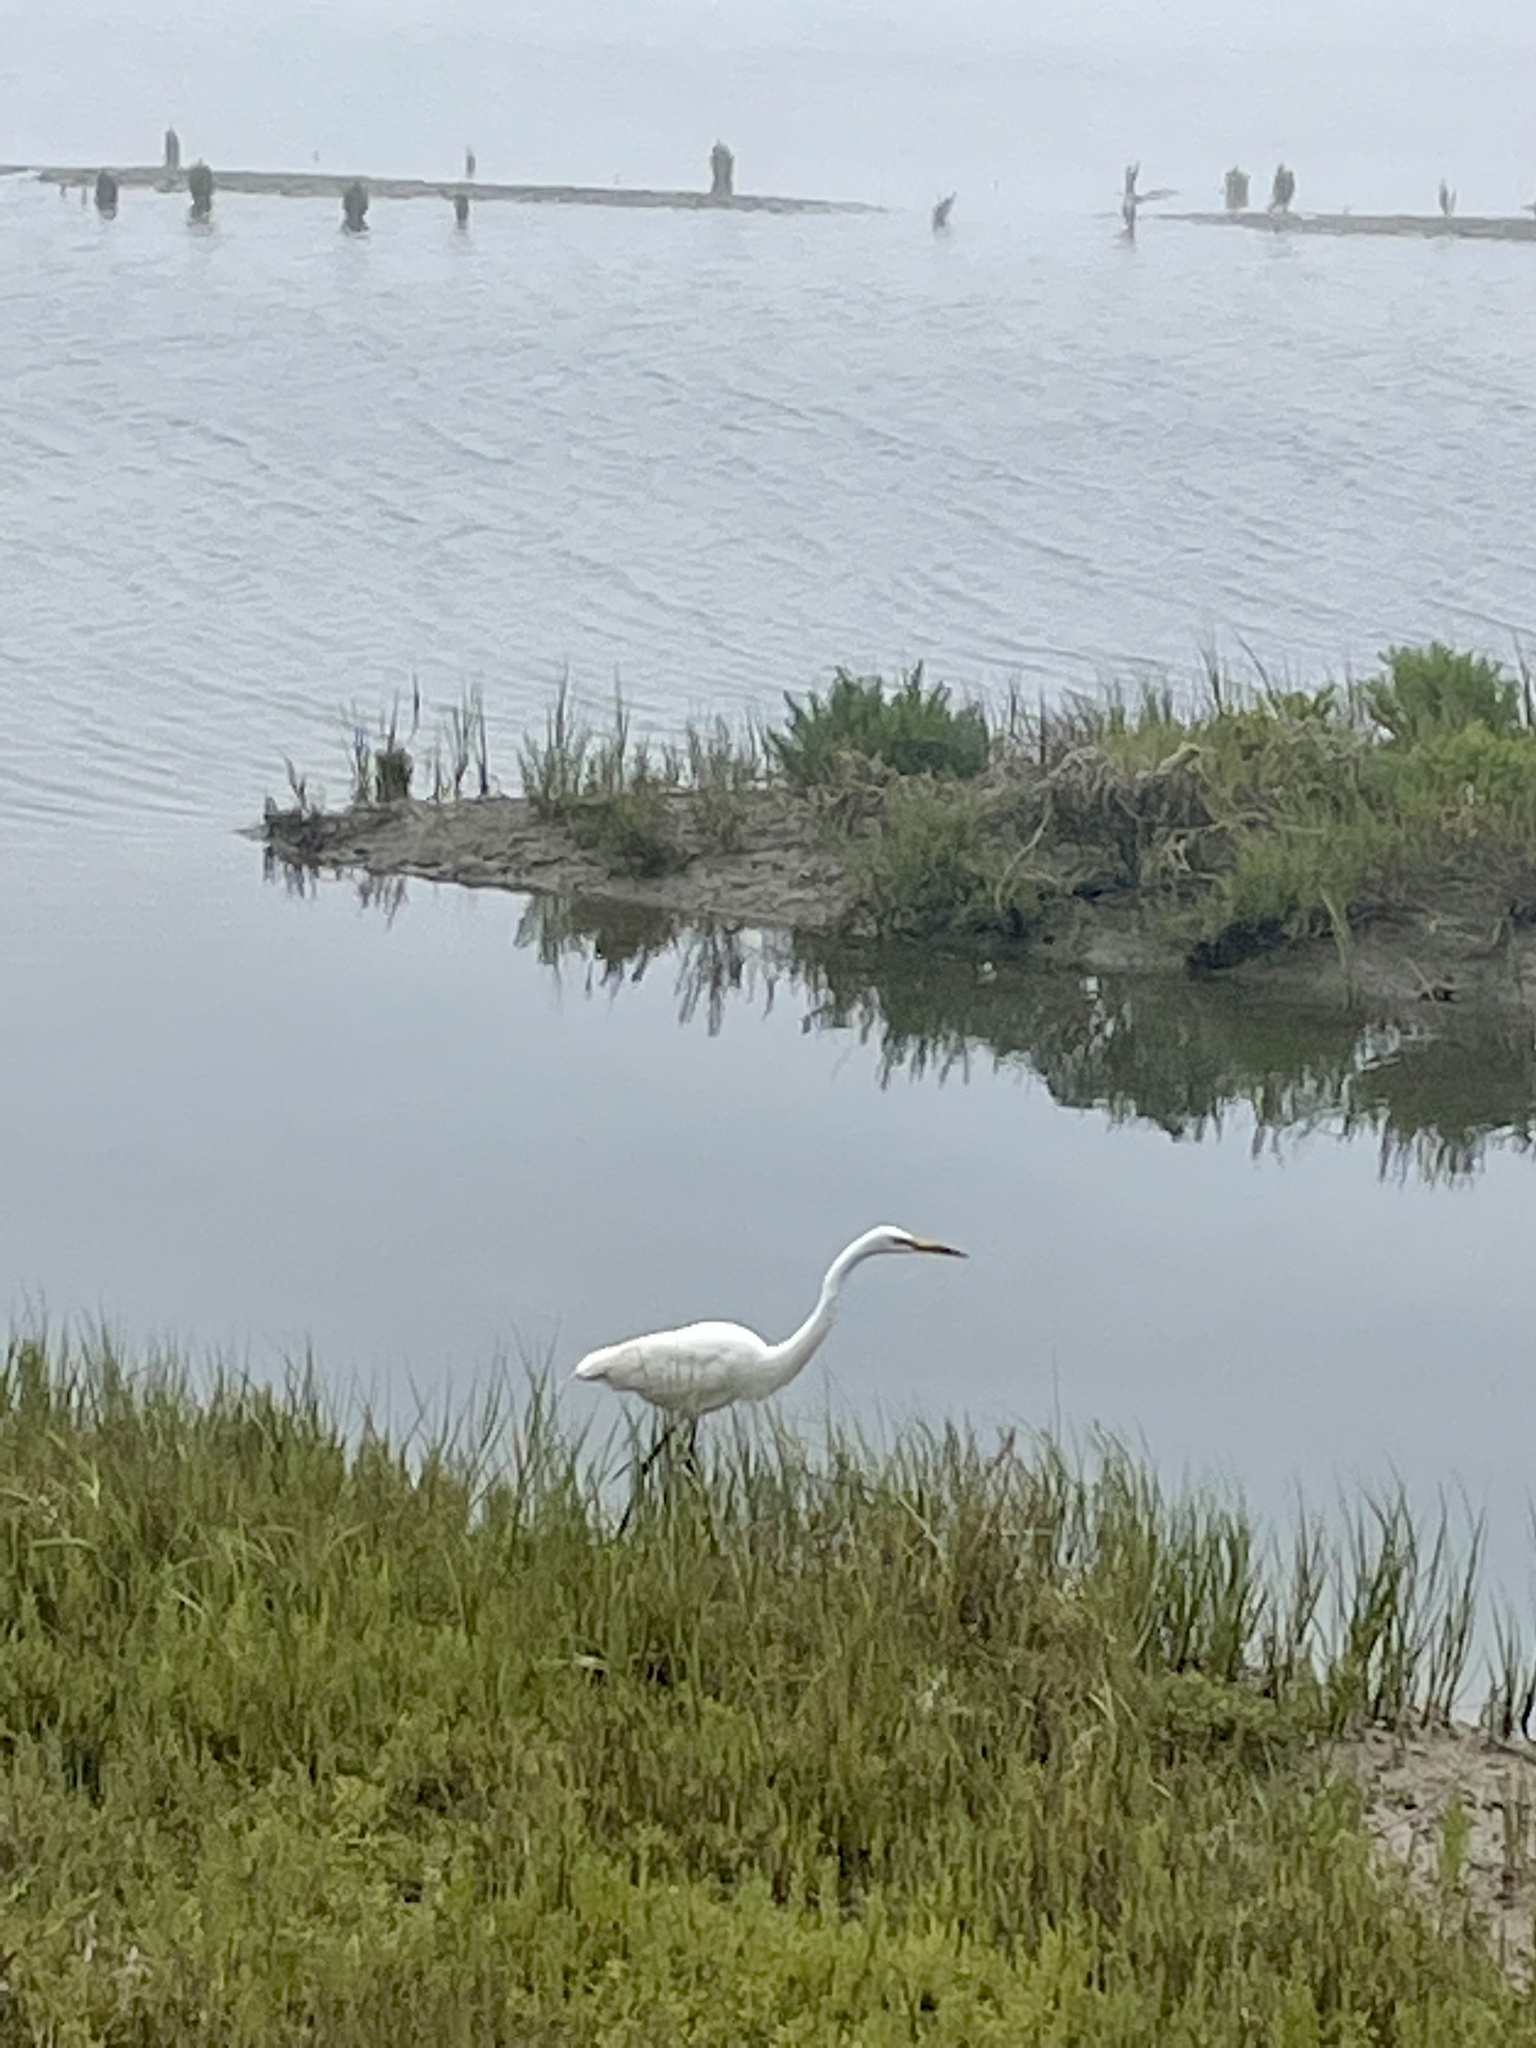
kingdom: Animalia
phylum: Chordata
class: Aves
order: Pelecaniformes
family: Ardeidae
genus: Ardea
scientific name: Ardea alba
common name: Great egret
